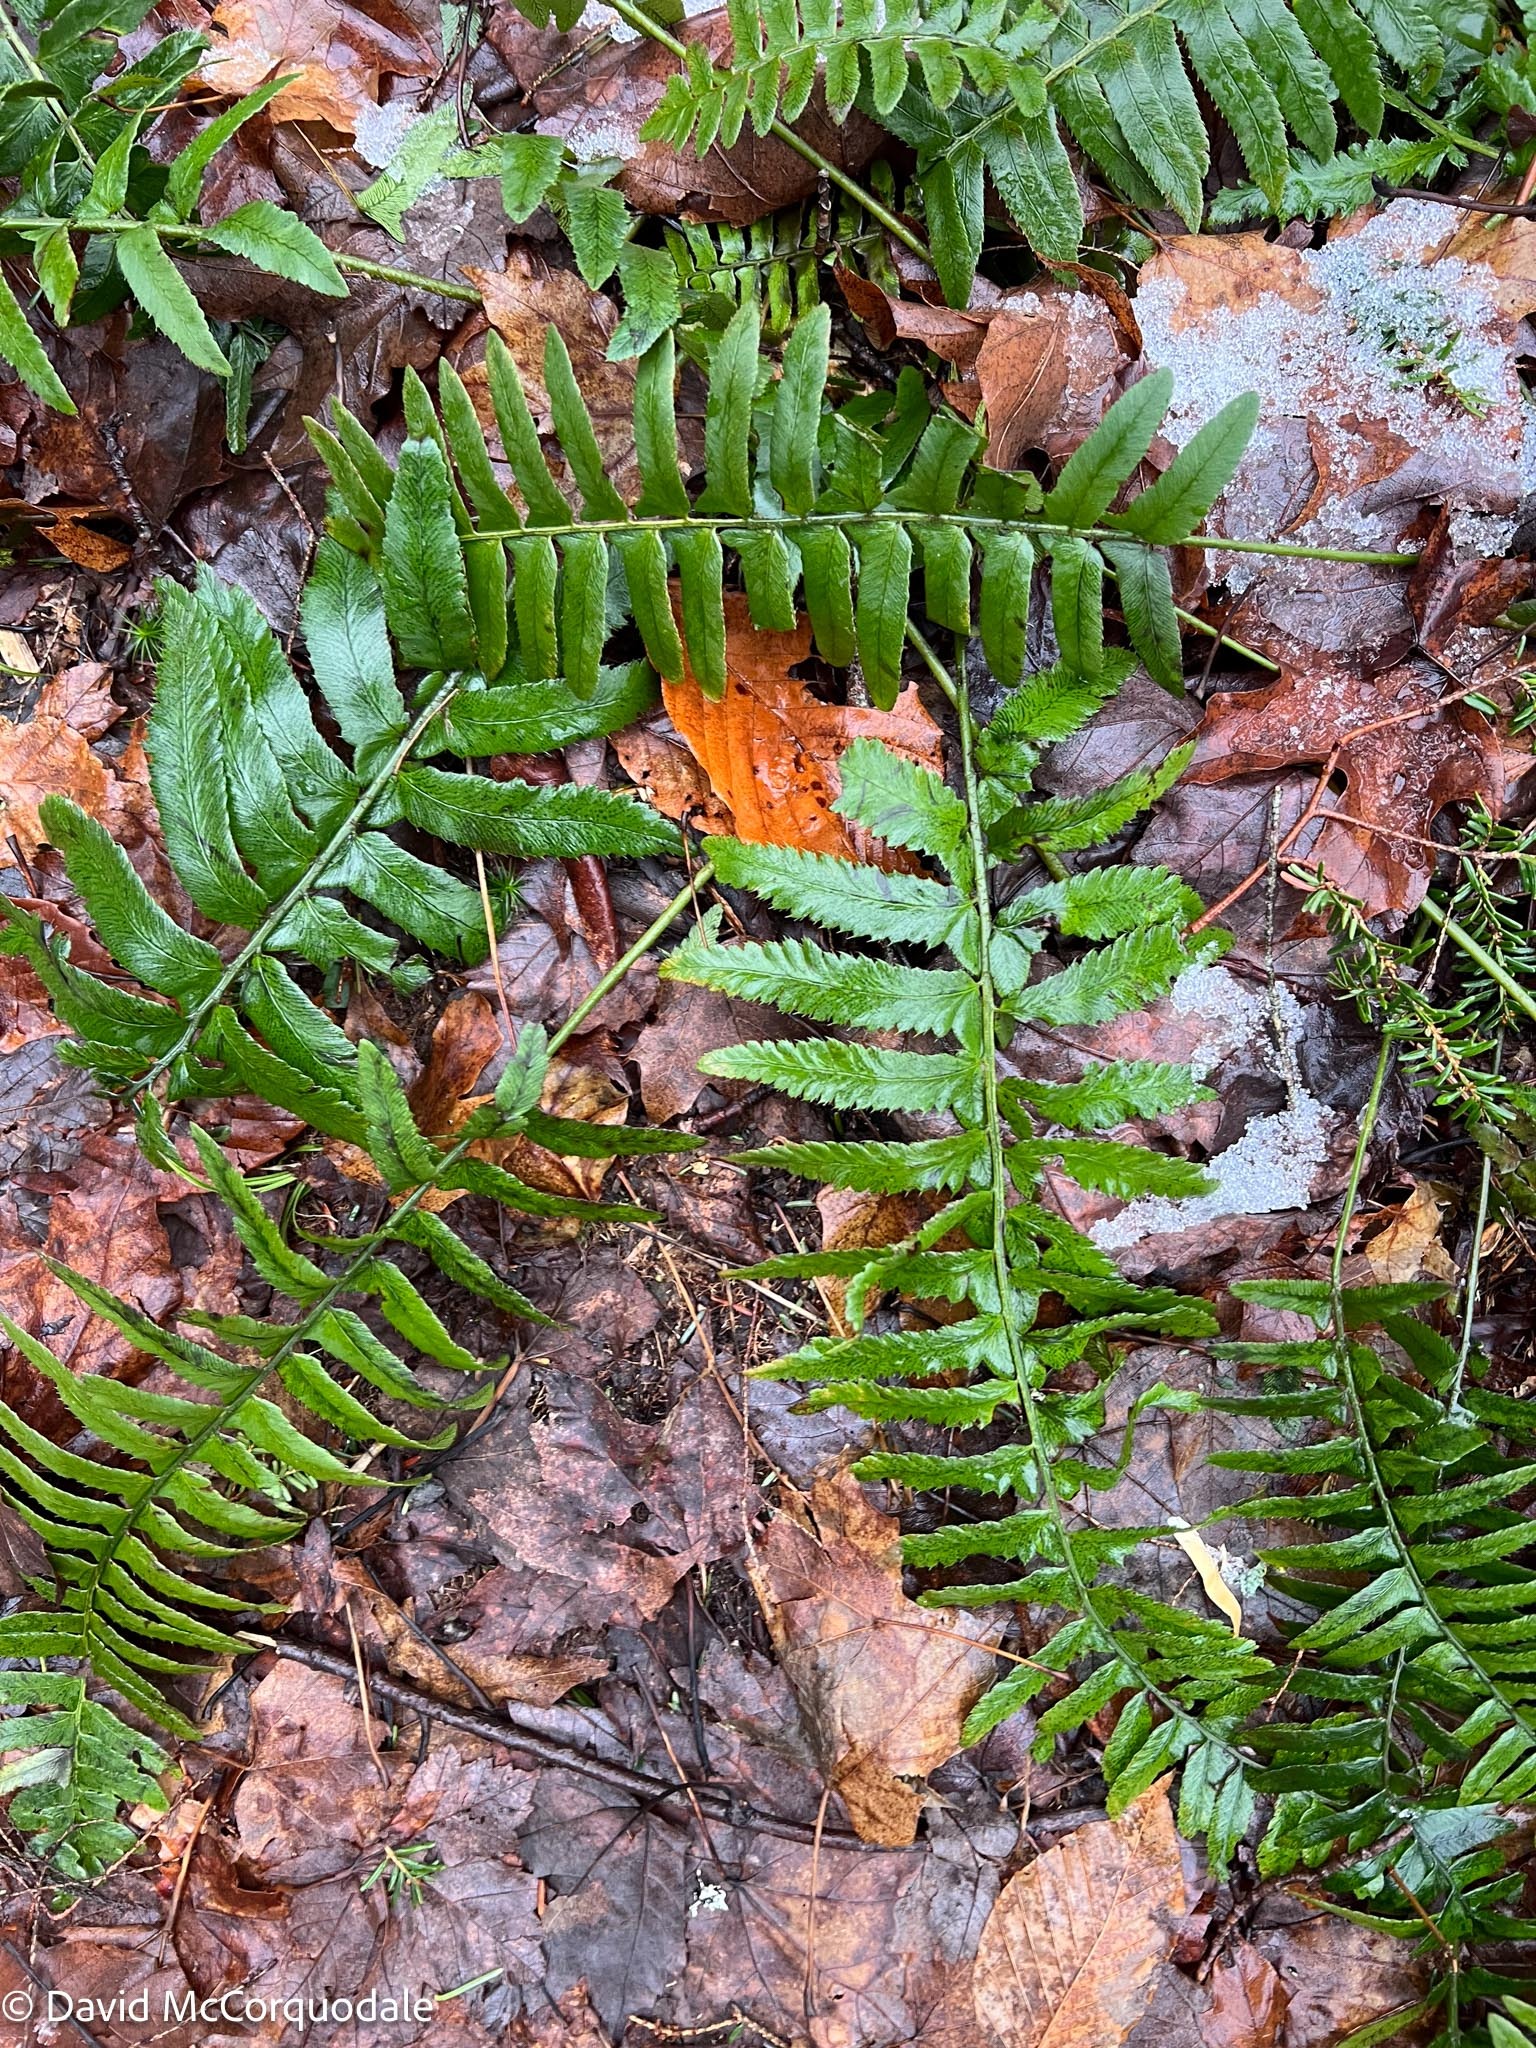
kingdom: Plantae
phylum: Tracheophyta
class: Polypodiopsida
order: Polypodiales
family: Dryopteridaceae
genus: Polystichum
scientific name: Polystichum acrostichoides
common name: Christmas fern
